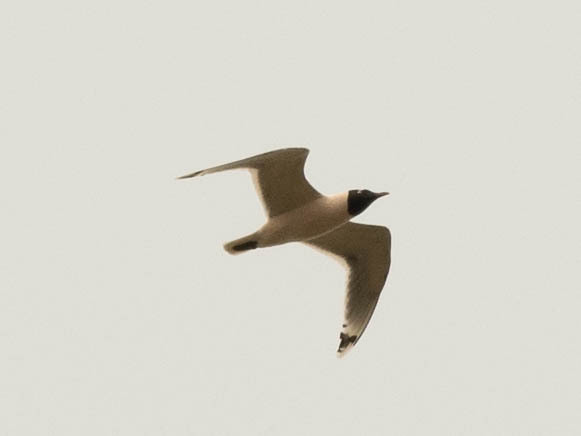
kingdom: Animalia
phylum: Chordata
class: Aves
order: Charadriiformes
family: Laridae
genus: Leucophaeus
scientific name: Leucophaeus pipixcan
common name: Franklin's gull
